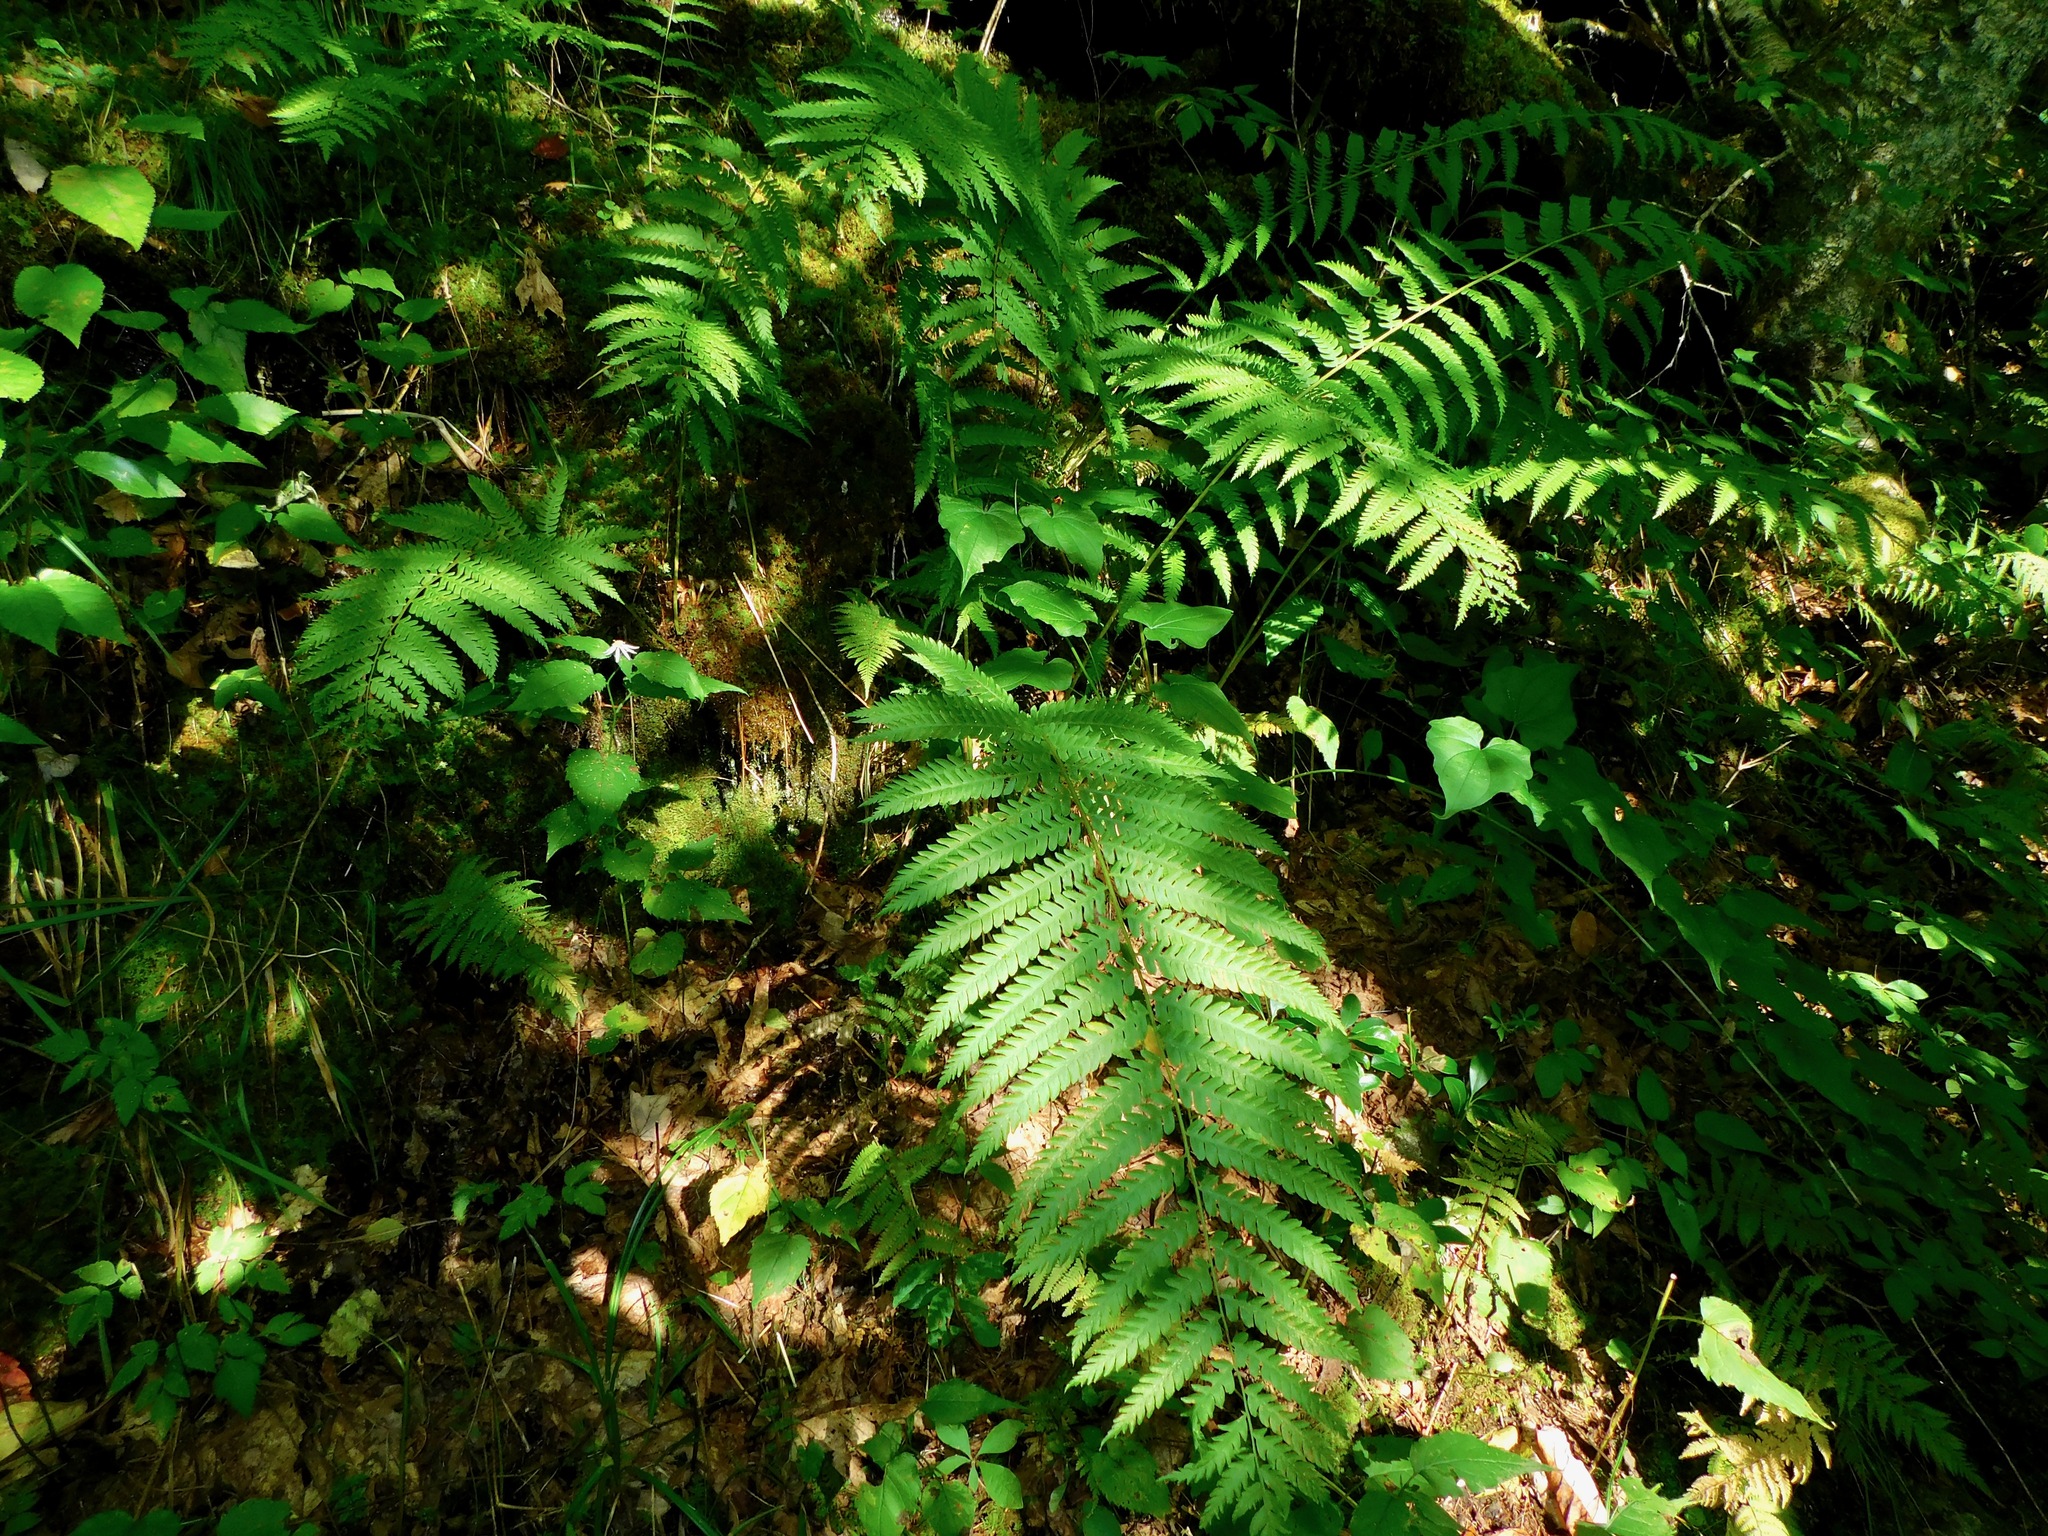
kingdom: Plantae
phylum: Tracheophyta
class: Polypodiopsida
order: Osmundales
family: Osmundaceae
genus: Osmundastrum
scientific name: Osmundastrum cinnamomeum
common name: Cinnamon fern
